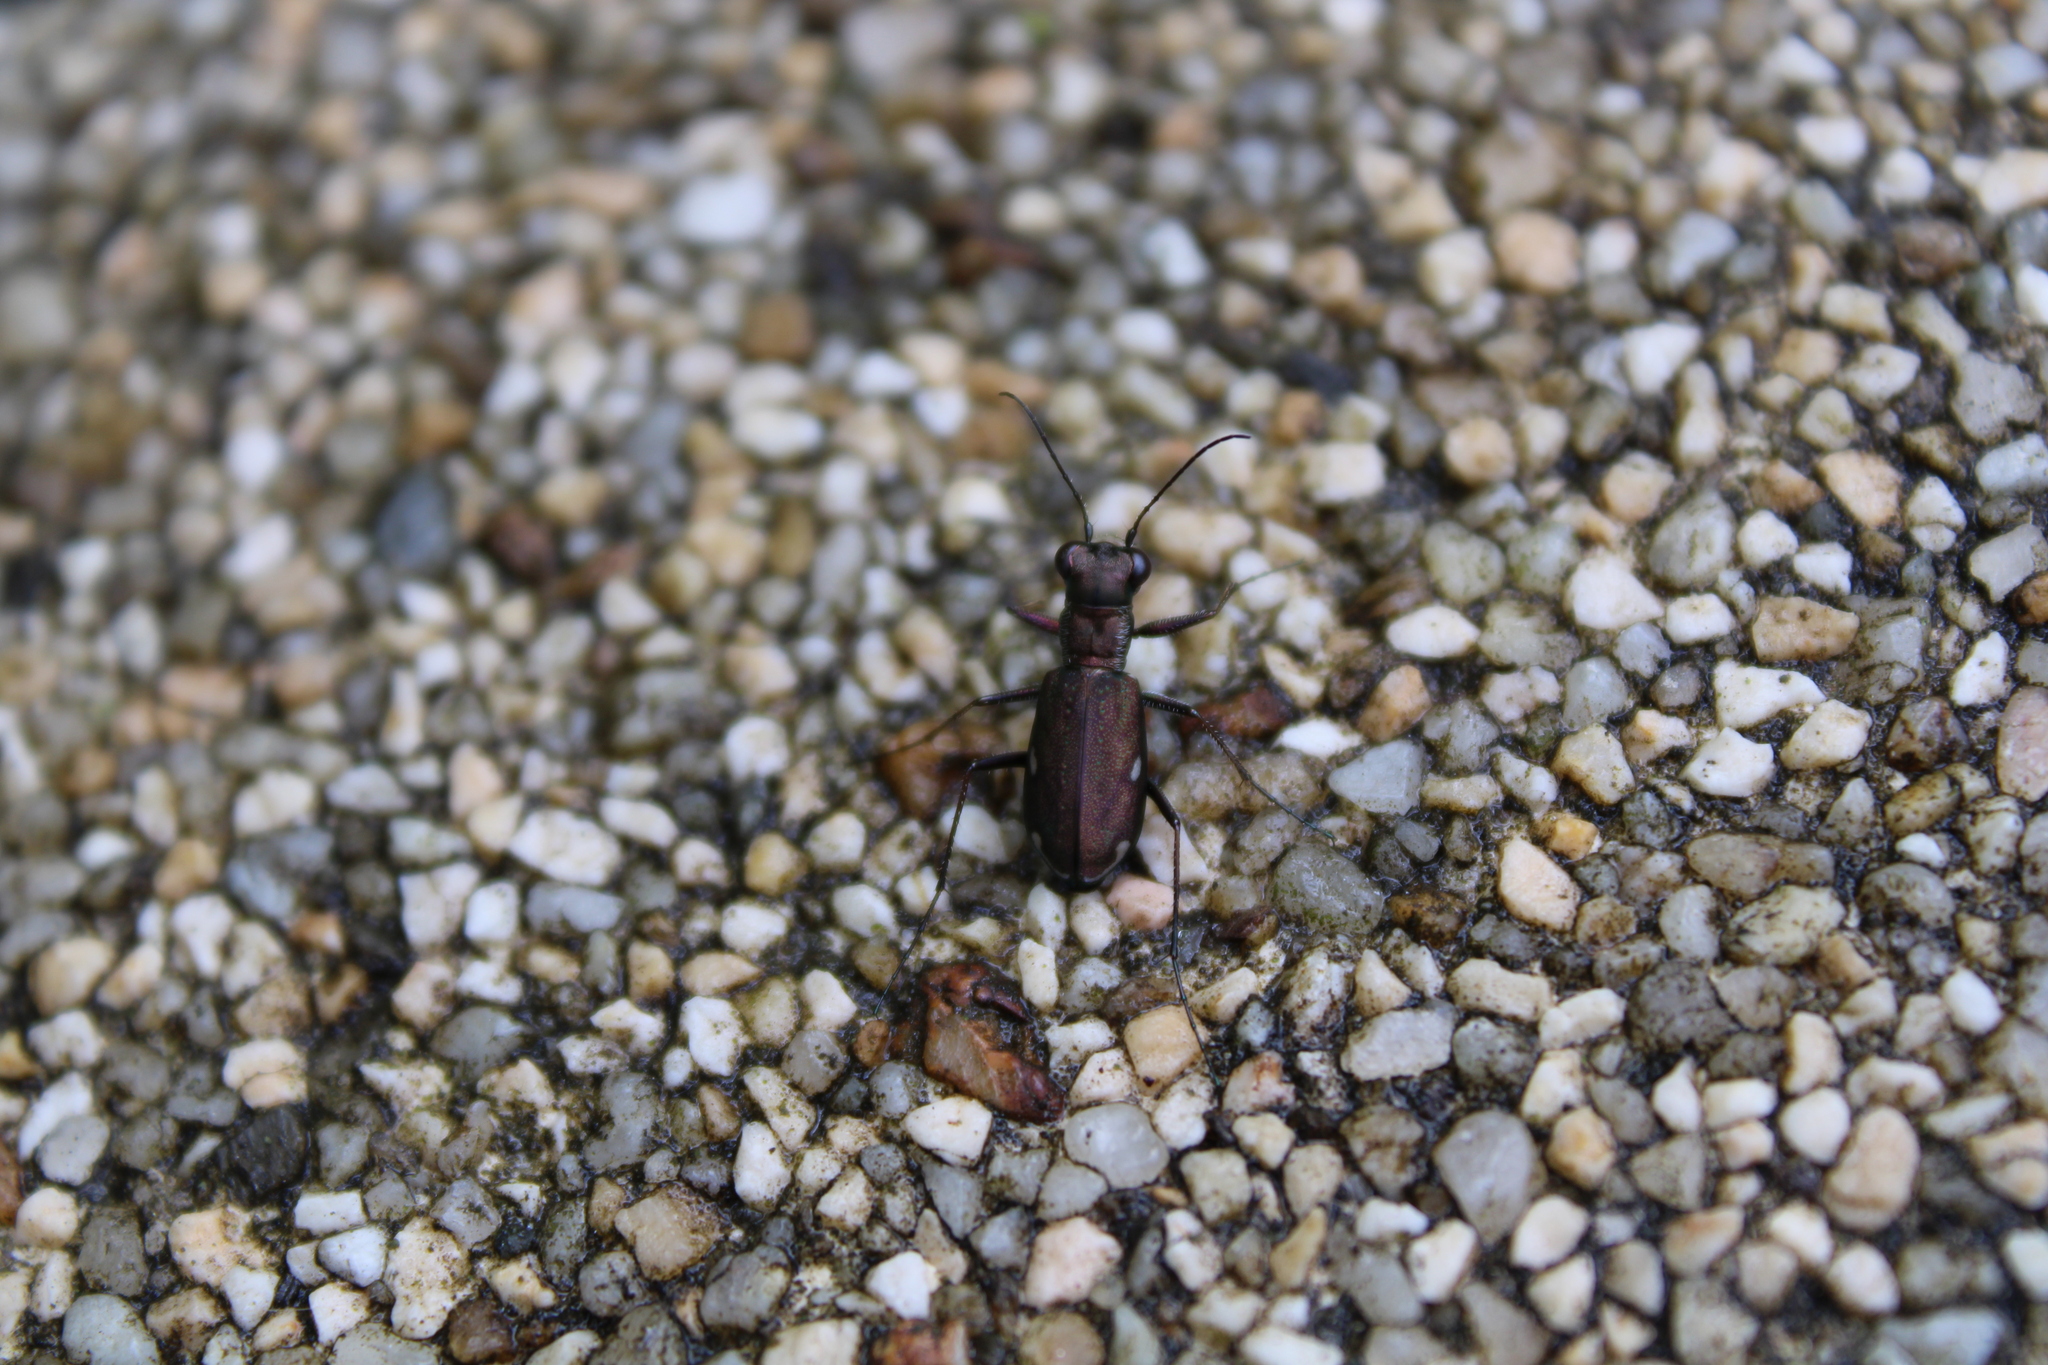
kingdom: Animalia
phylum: Arthropoda
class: Insecta
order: Coleoptera
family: Carabidae
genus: Cylindera
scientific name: Cylindera germanica
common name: Cliff tiger beetle
